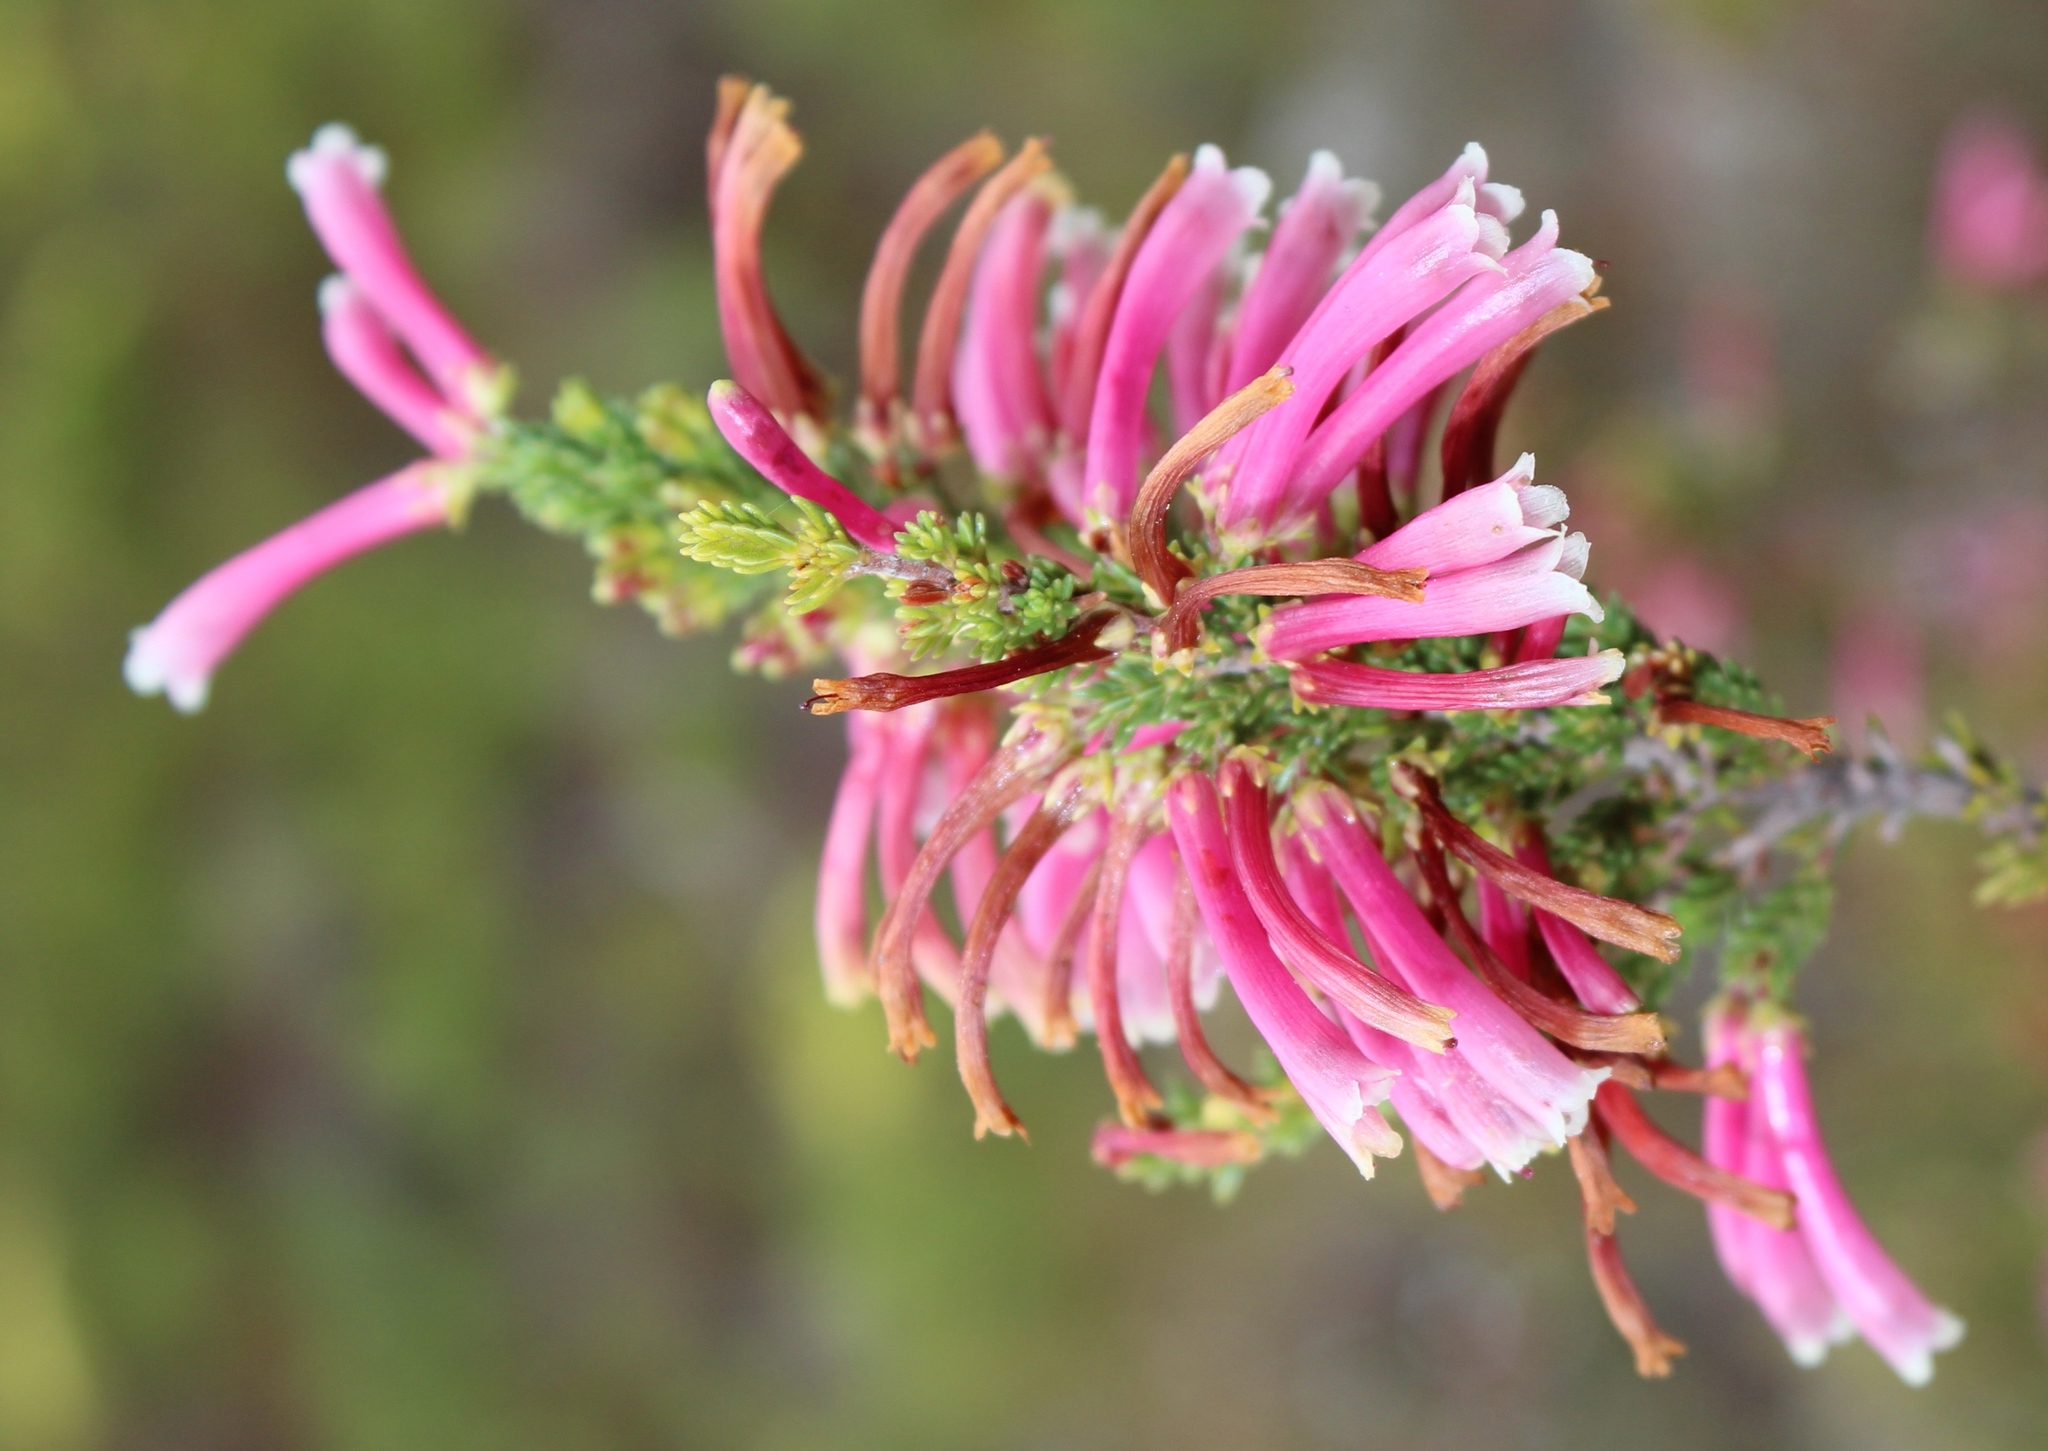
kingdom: Plantae
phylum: Tracheophyta
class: Magnoliopsida
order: Ericales
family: Ericaceae
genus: Erica
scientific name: Erica discolor
